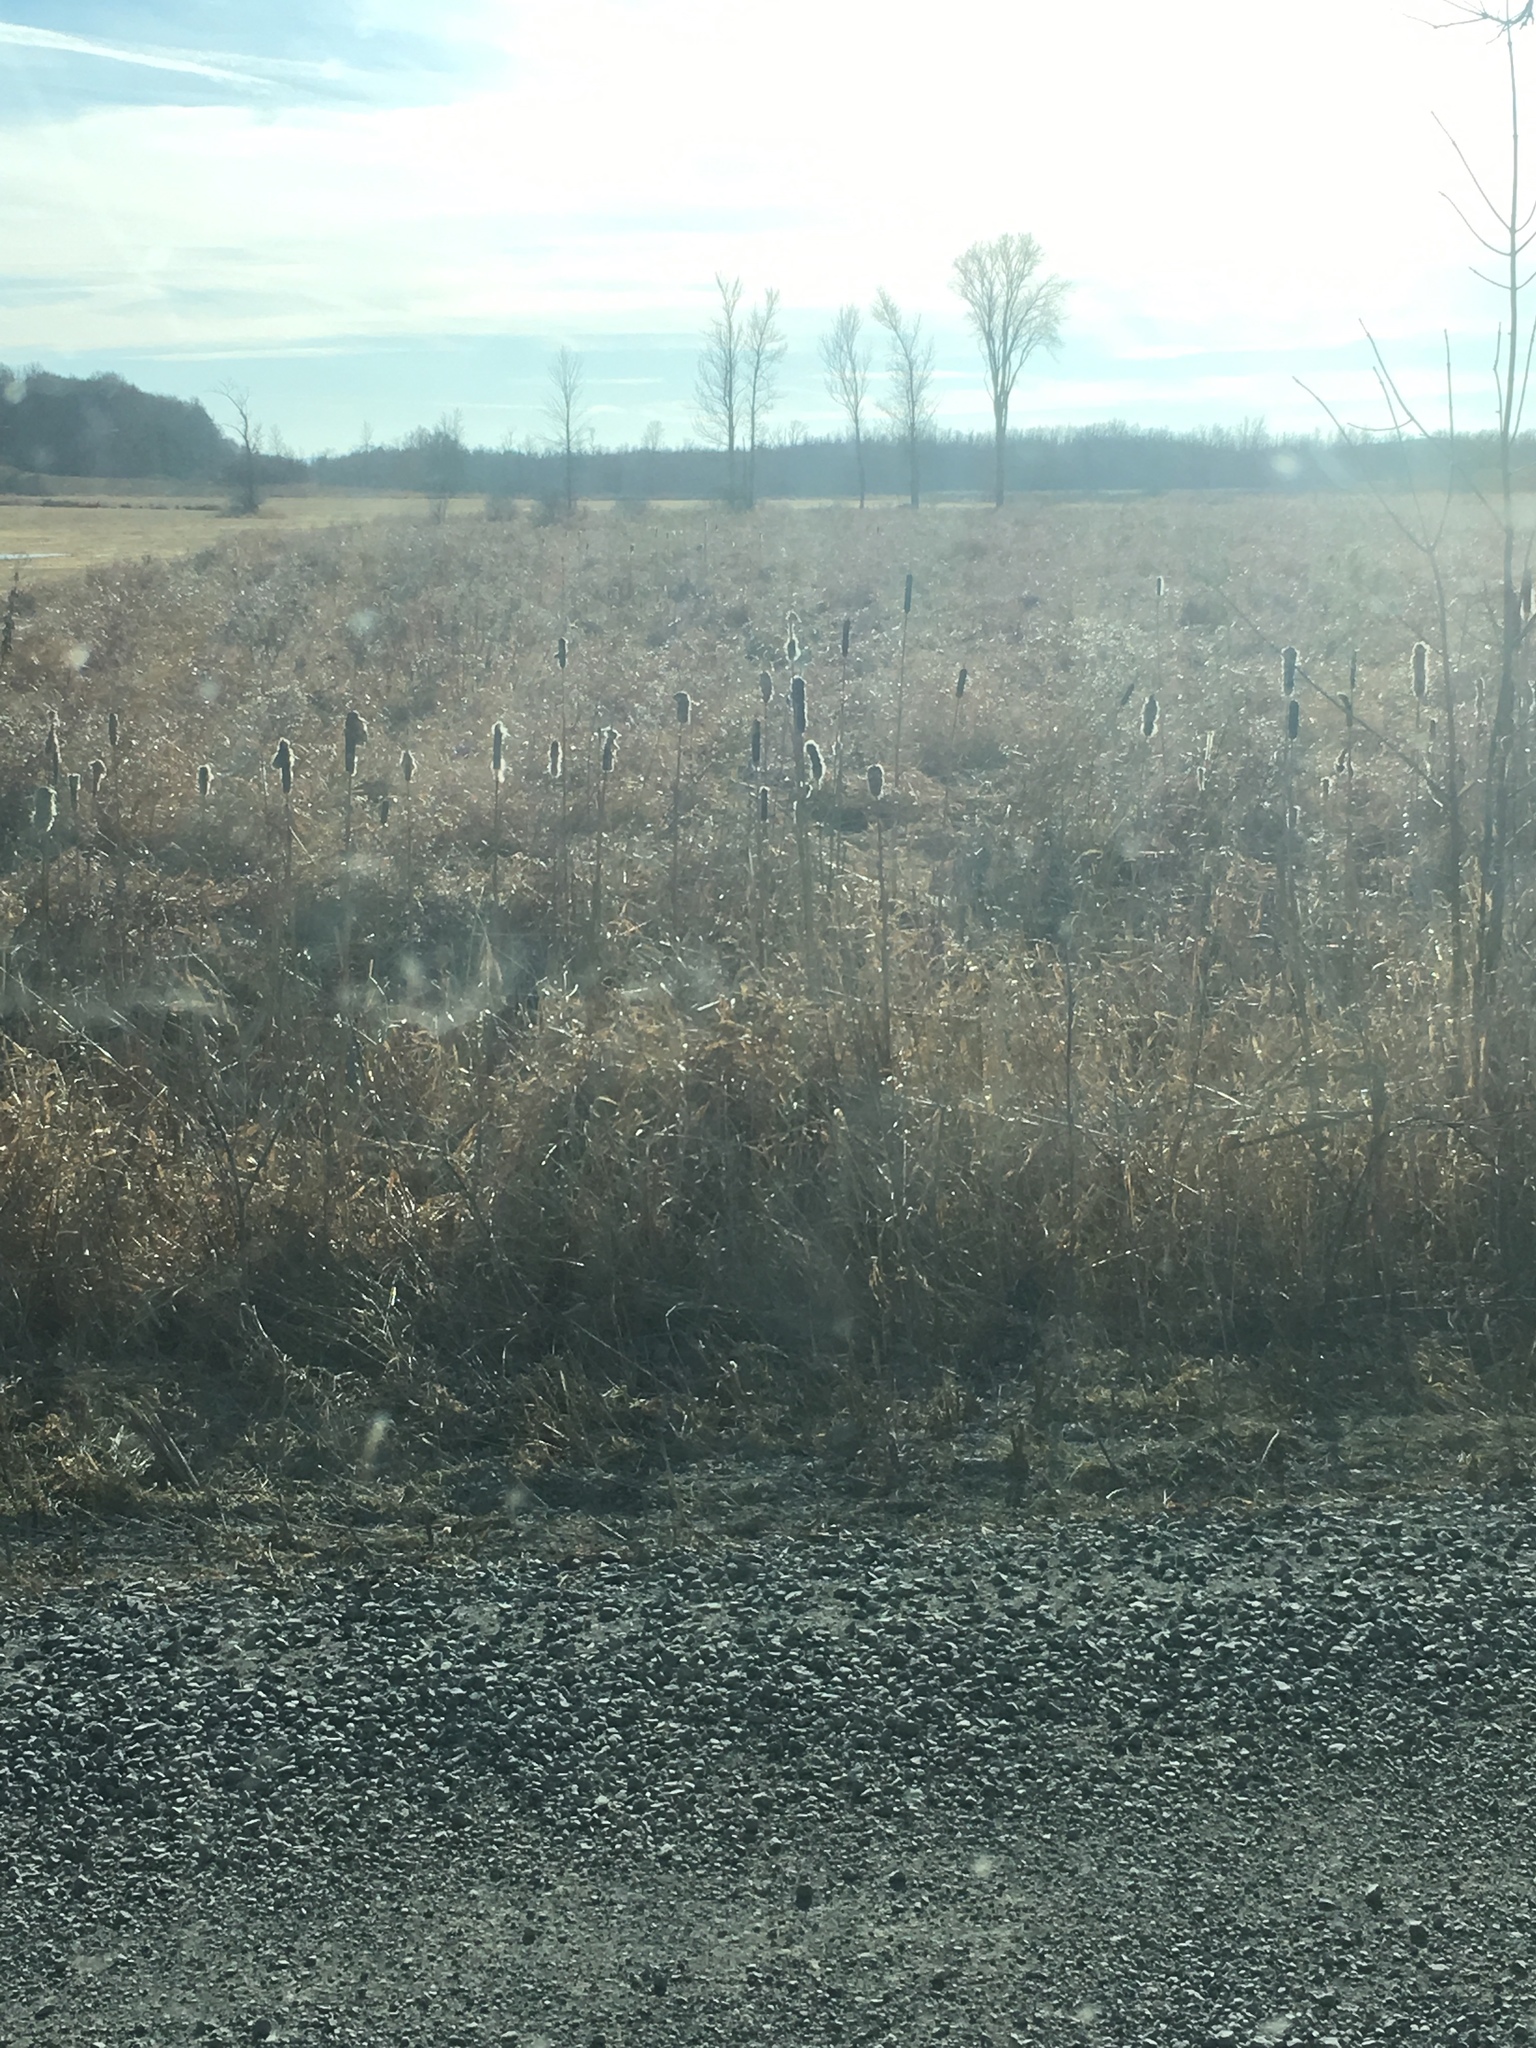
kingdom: Plantae
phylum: Tracheophyta
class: Liliopsida
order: Poales
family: Typhaceae
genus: Typha
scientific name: Typha
